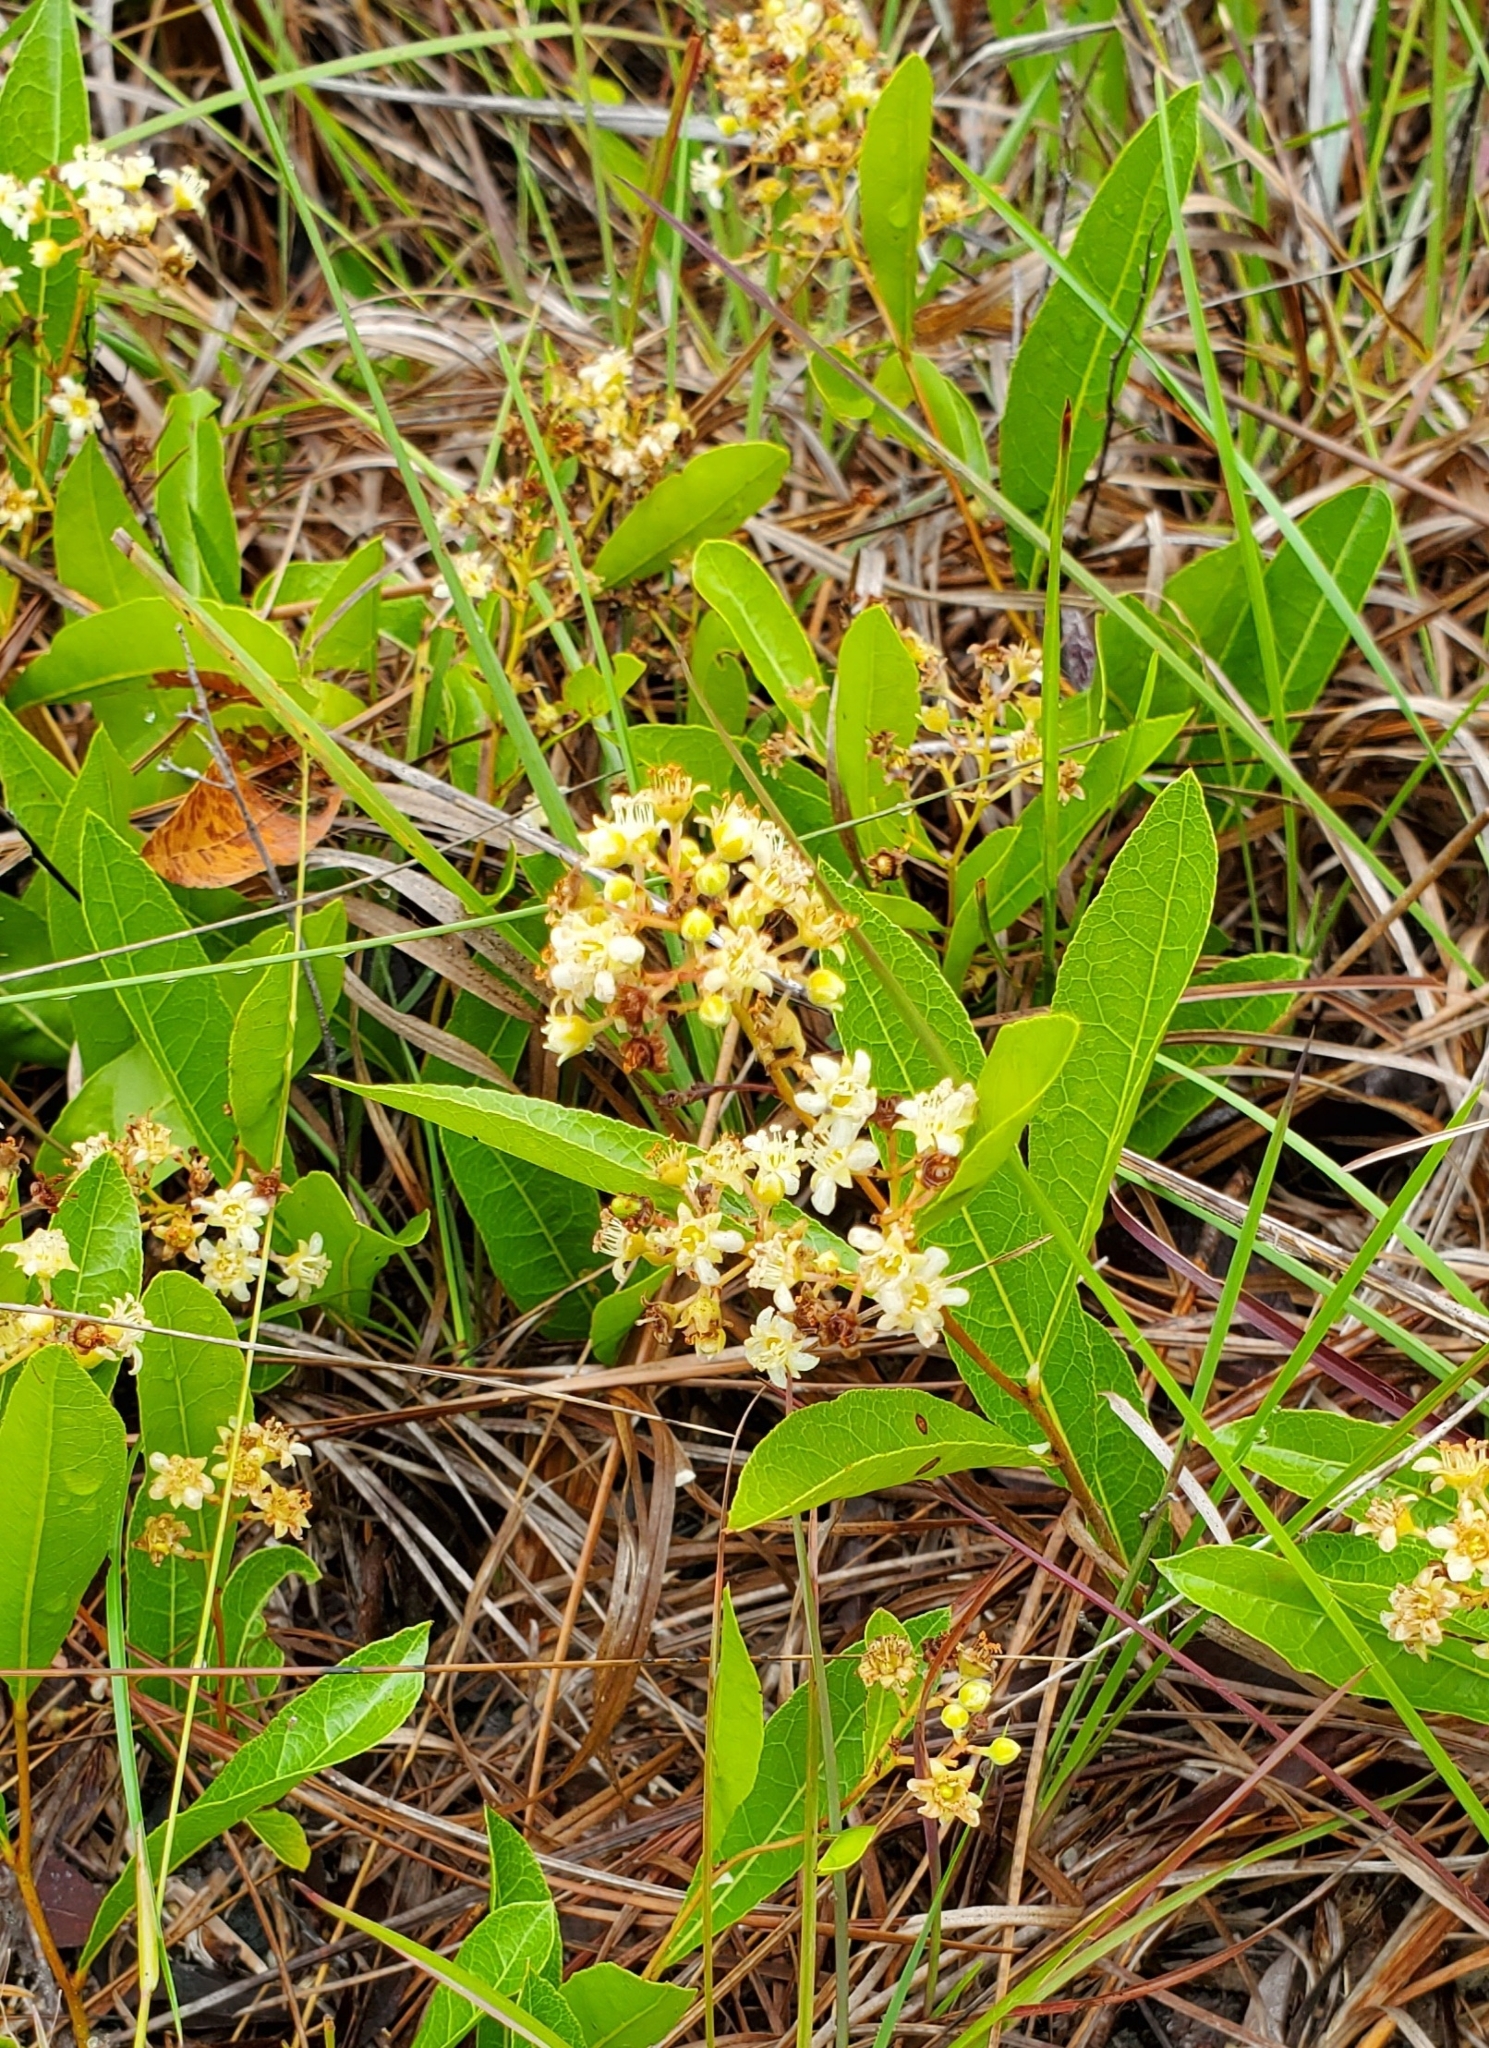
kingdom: Plantae
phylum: Tracheophyta
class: Magnoliopsida
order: Malpighiales
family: Chrysobalanaceae
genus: Geobalanus
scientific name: Geobalanus oblongifolius
